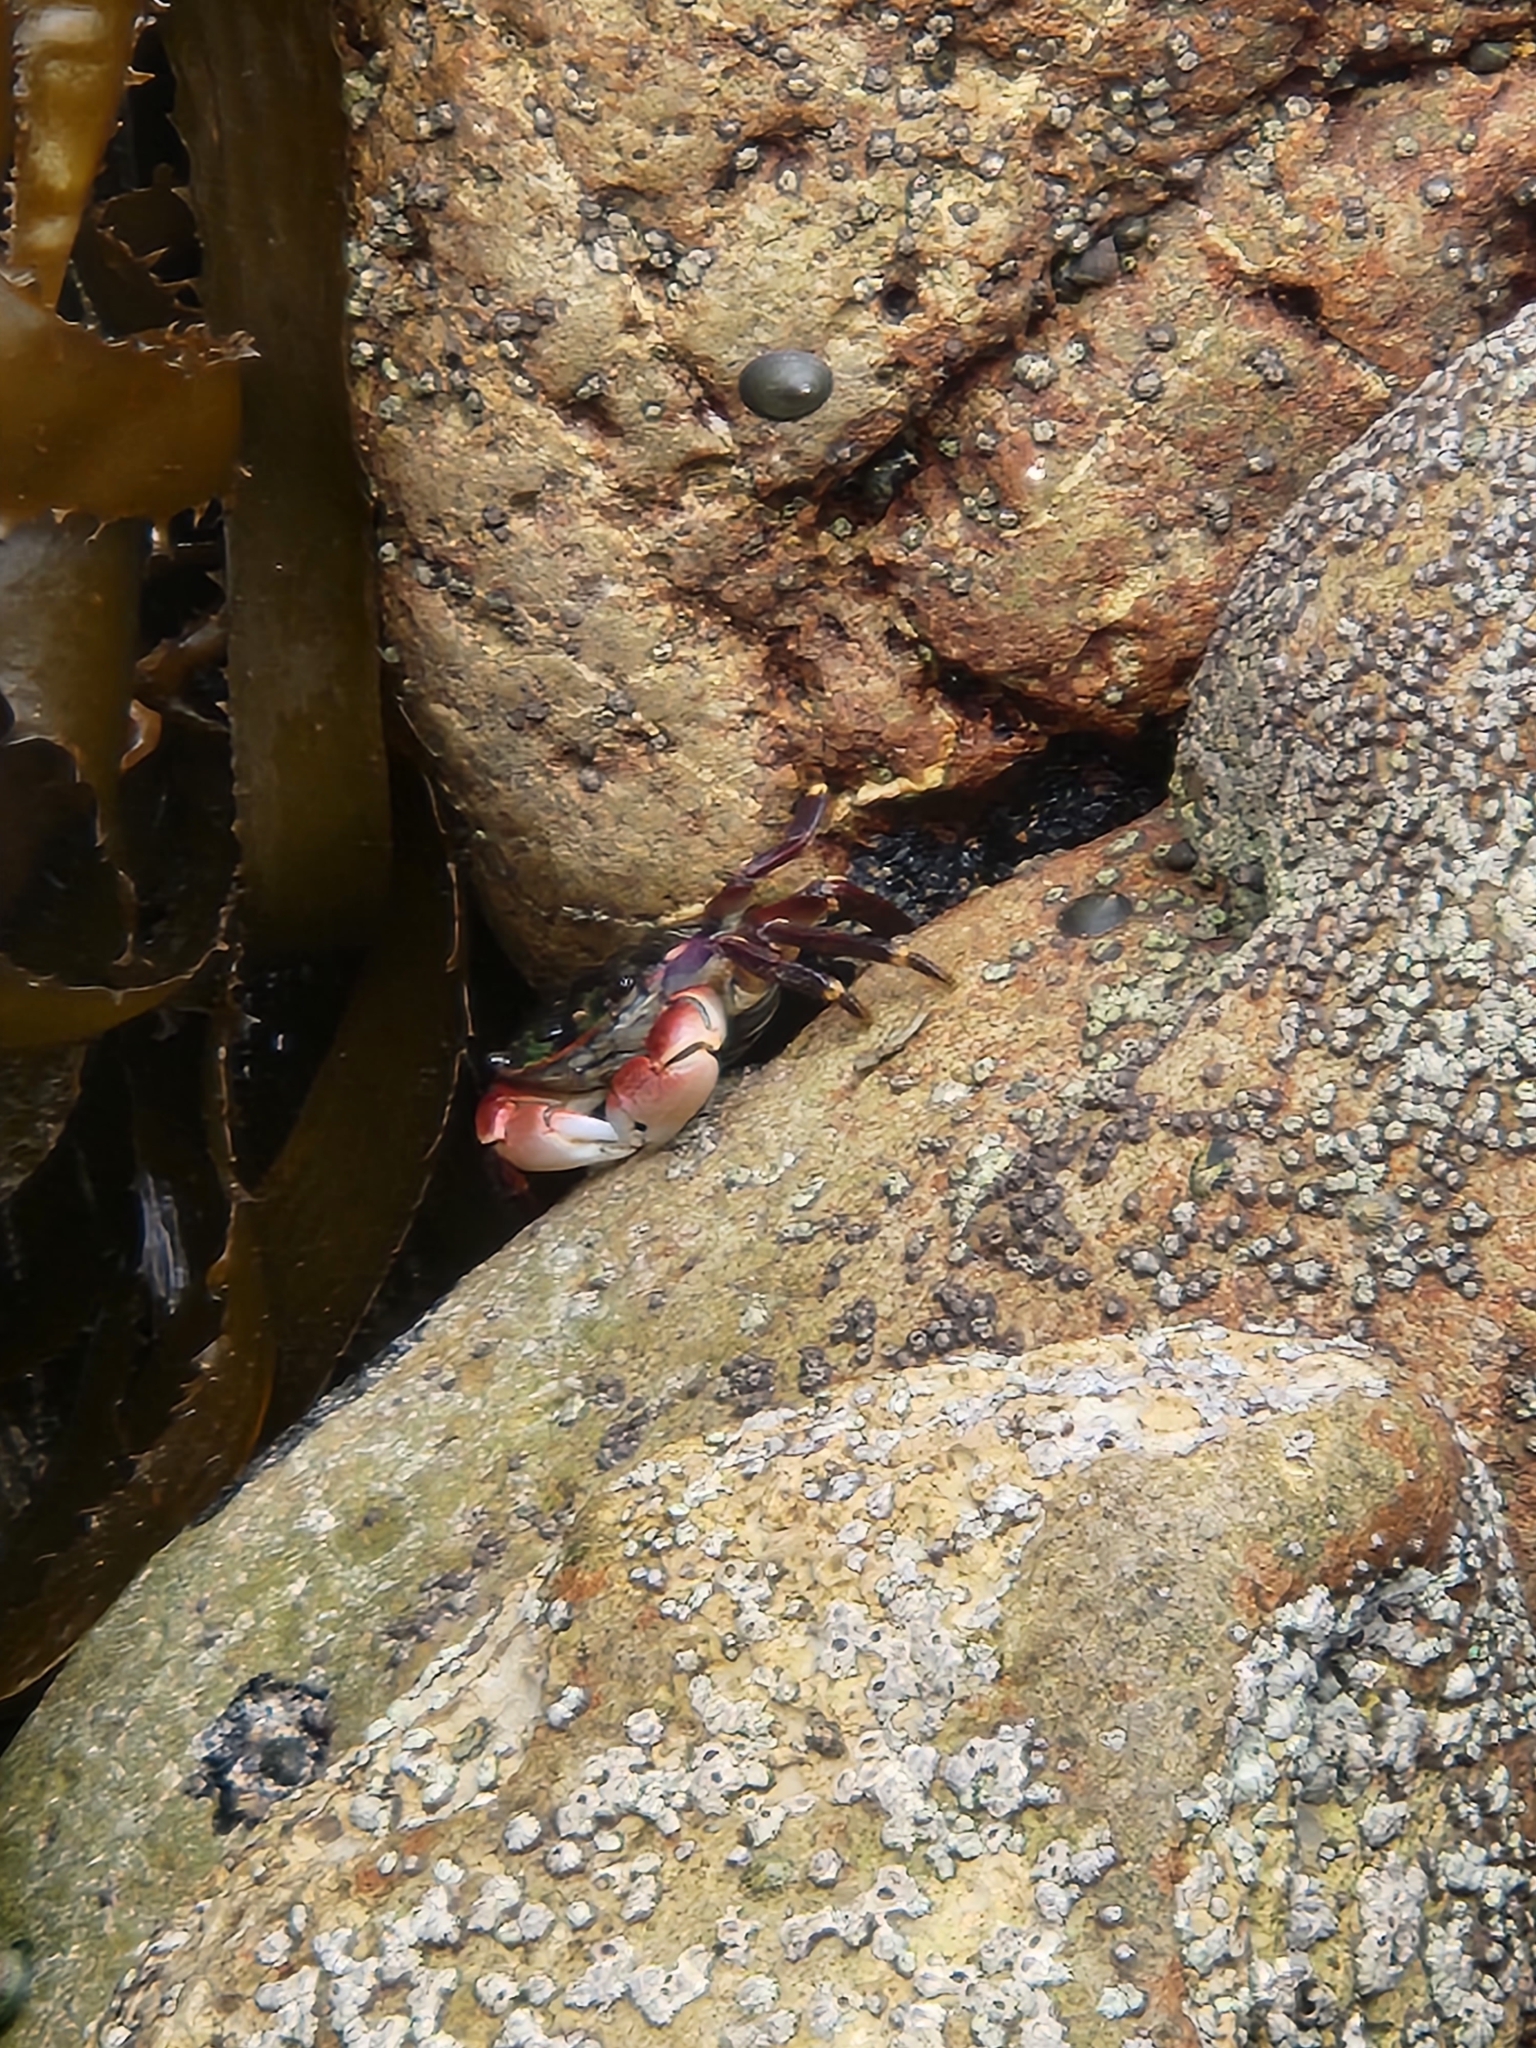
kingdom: Animalia
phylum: Arthropoda
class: Malacostraca
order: Decapoda
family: Grapsidae
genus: Pachygrapsus
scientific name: Pachygrapsus crassipes
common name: Striped shore crab
